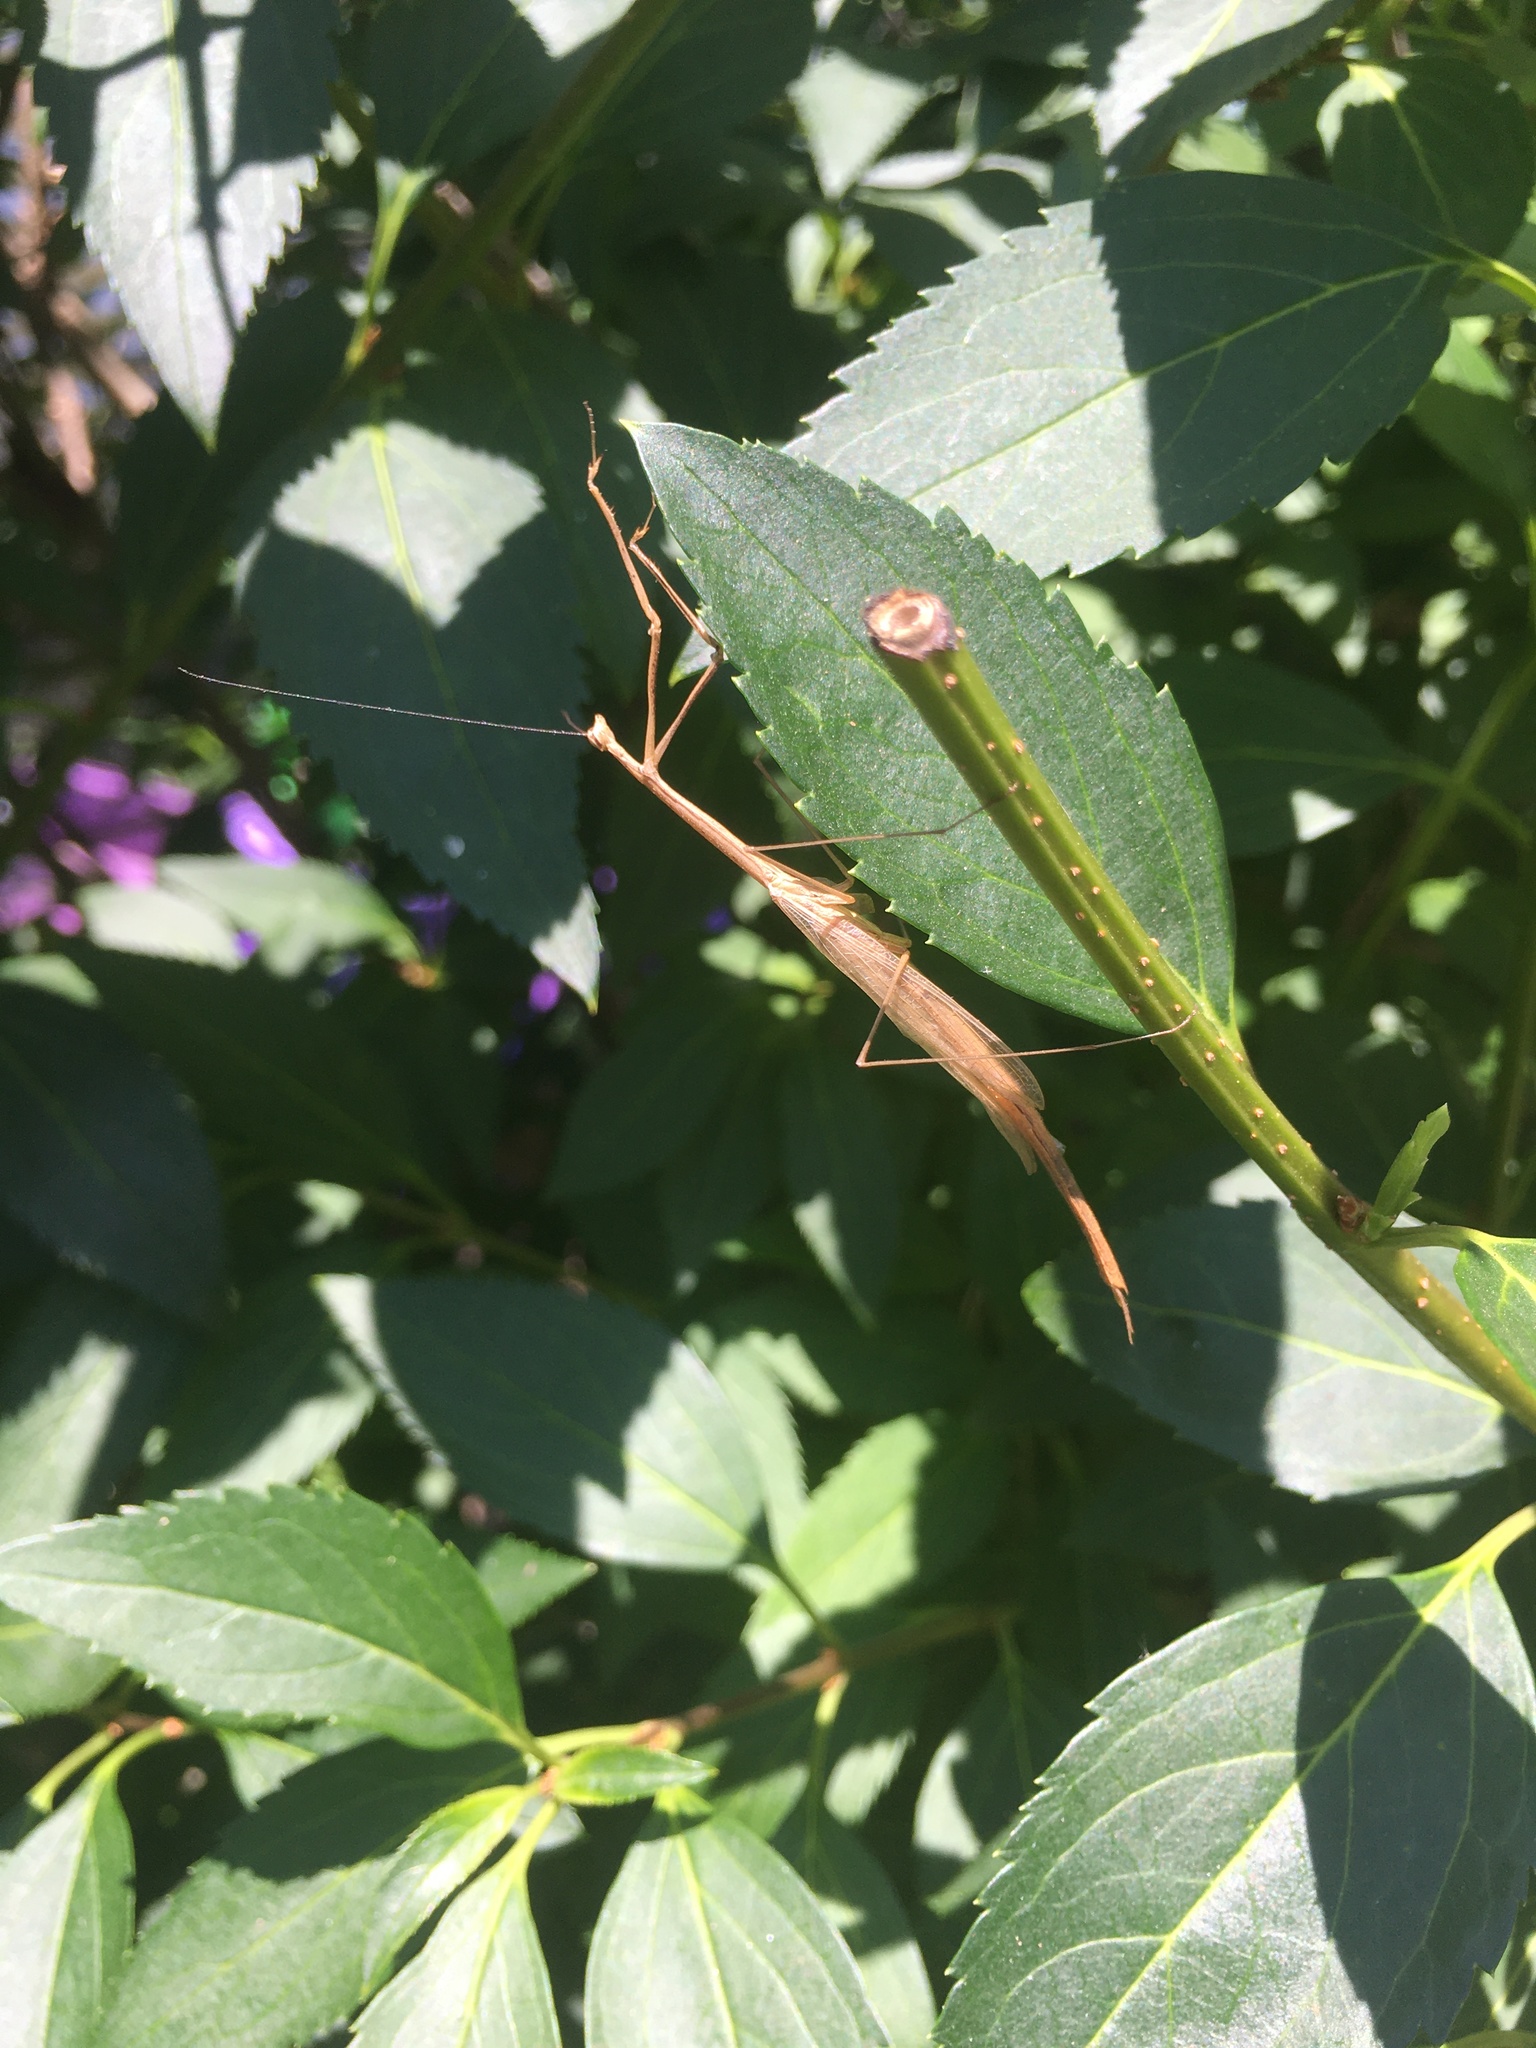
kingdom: Animalia
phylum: Arthropoda
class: Insecta
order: Mantodea
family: Thespidae
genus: Thesprotia
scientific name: Thesprotia graminis
